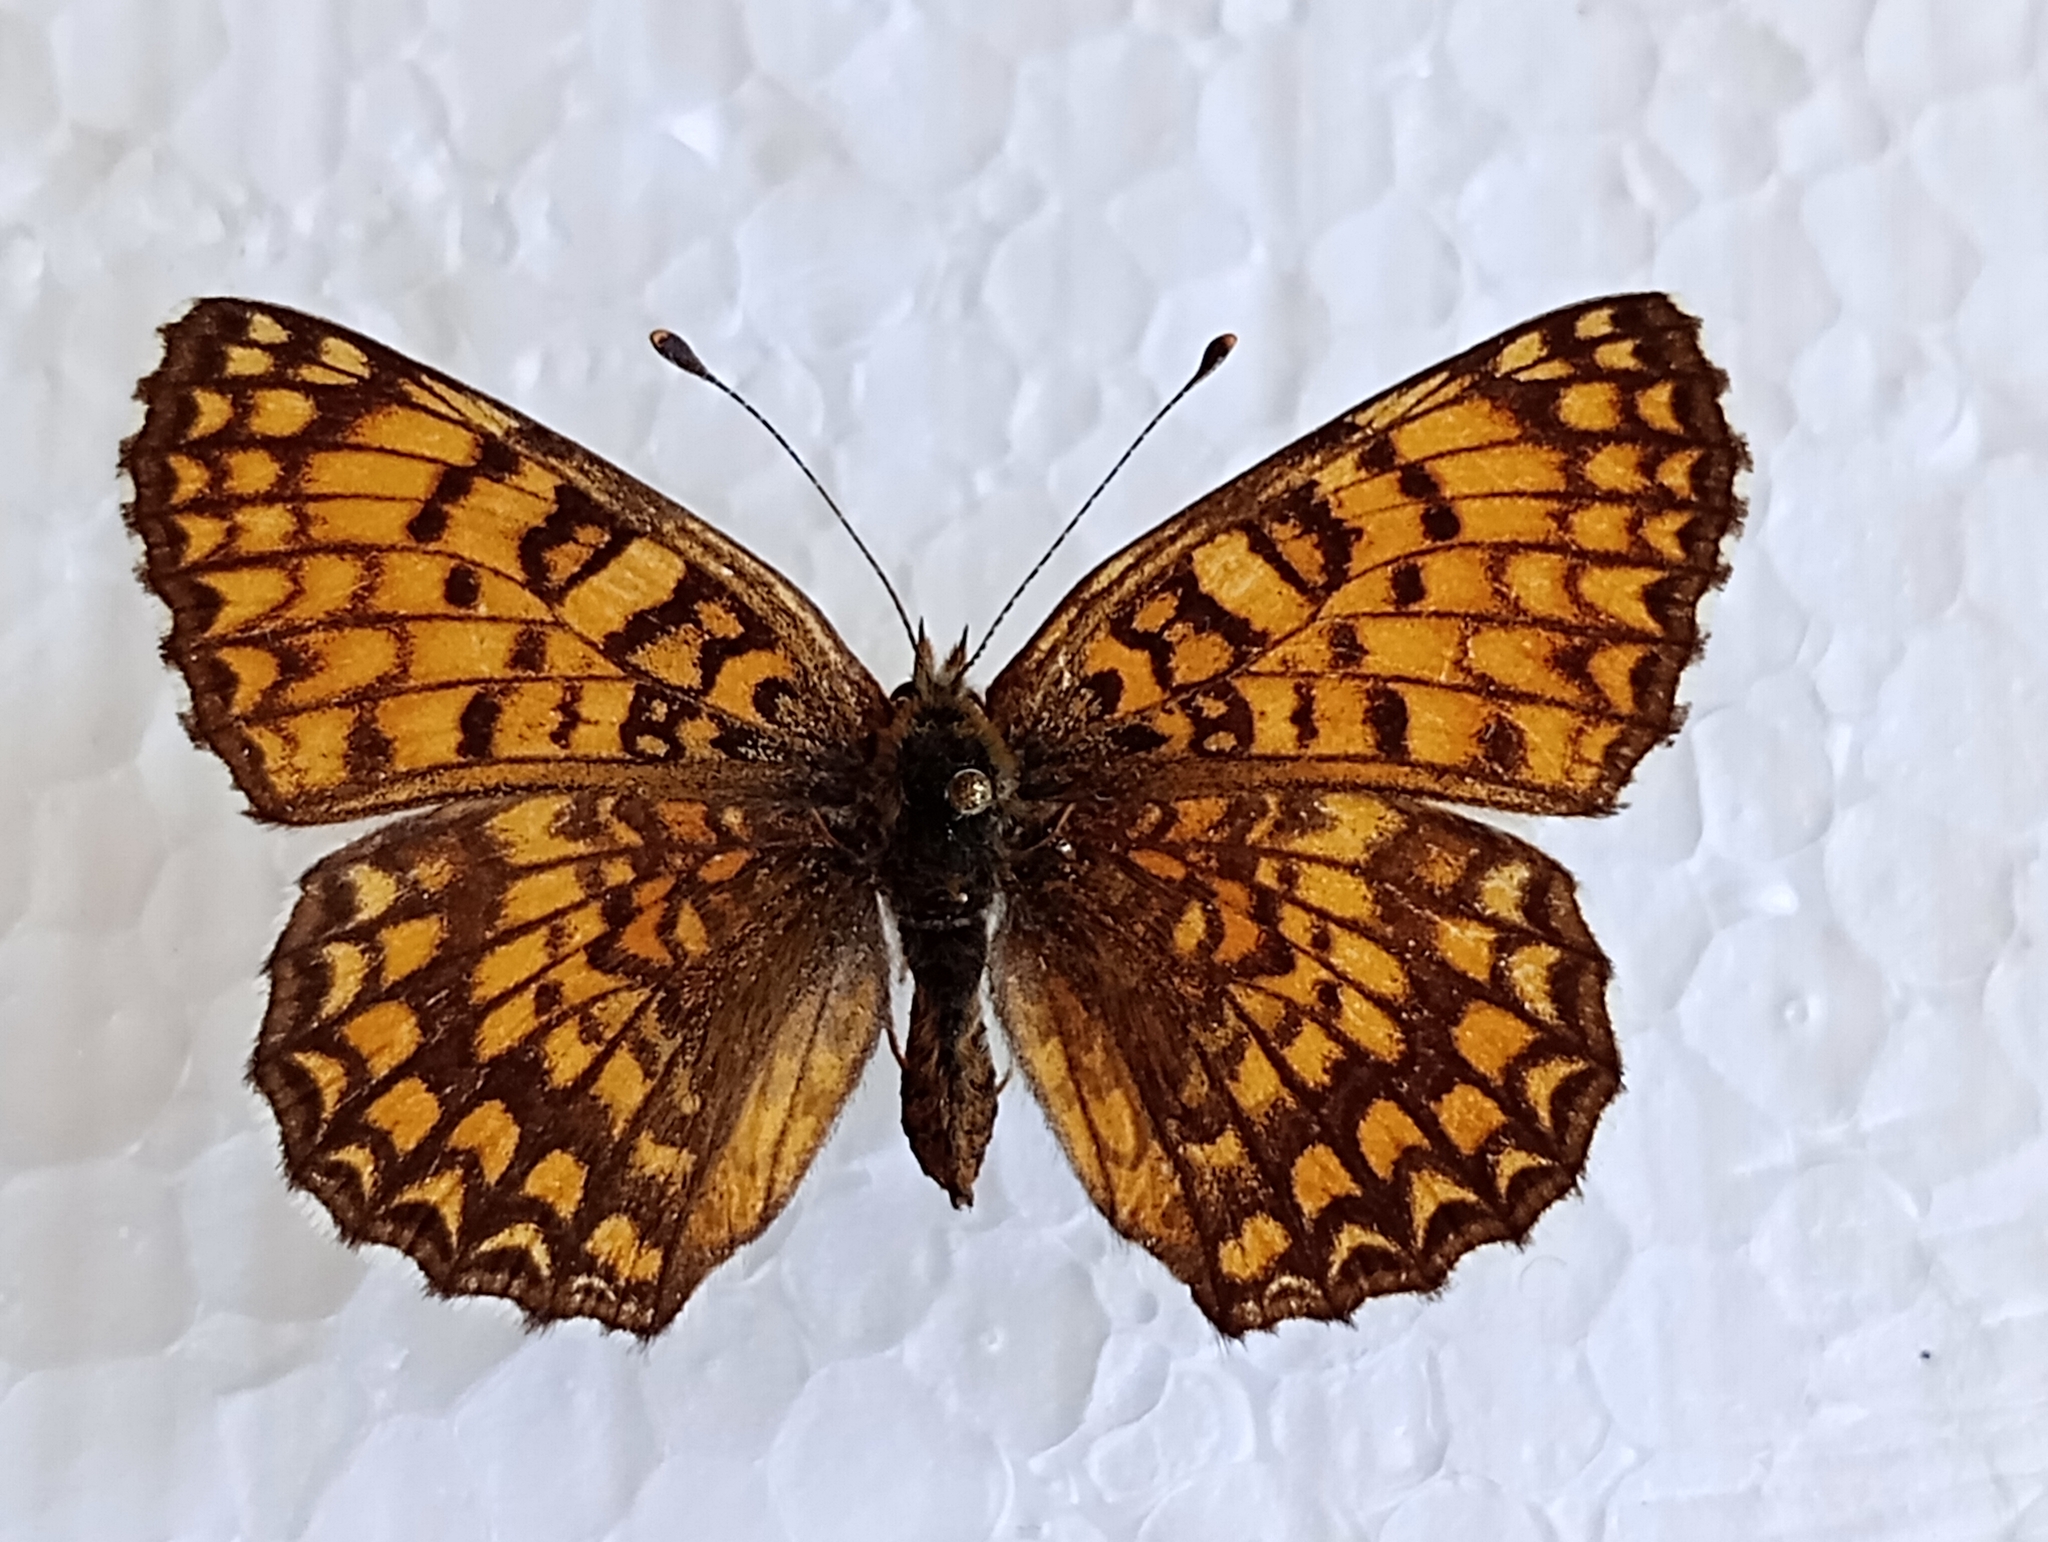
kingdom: Animalia
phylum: Arthropoda
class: Insecta
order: Lepidoptera
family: Nymphalidae
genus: Melitaea
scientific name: Melitaea phoebe
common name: Knapweed fritillary
